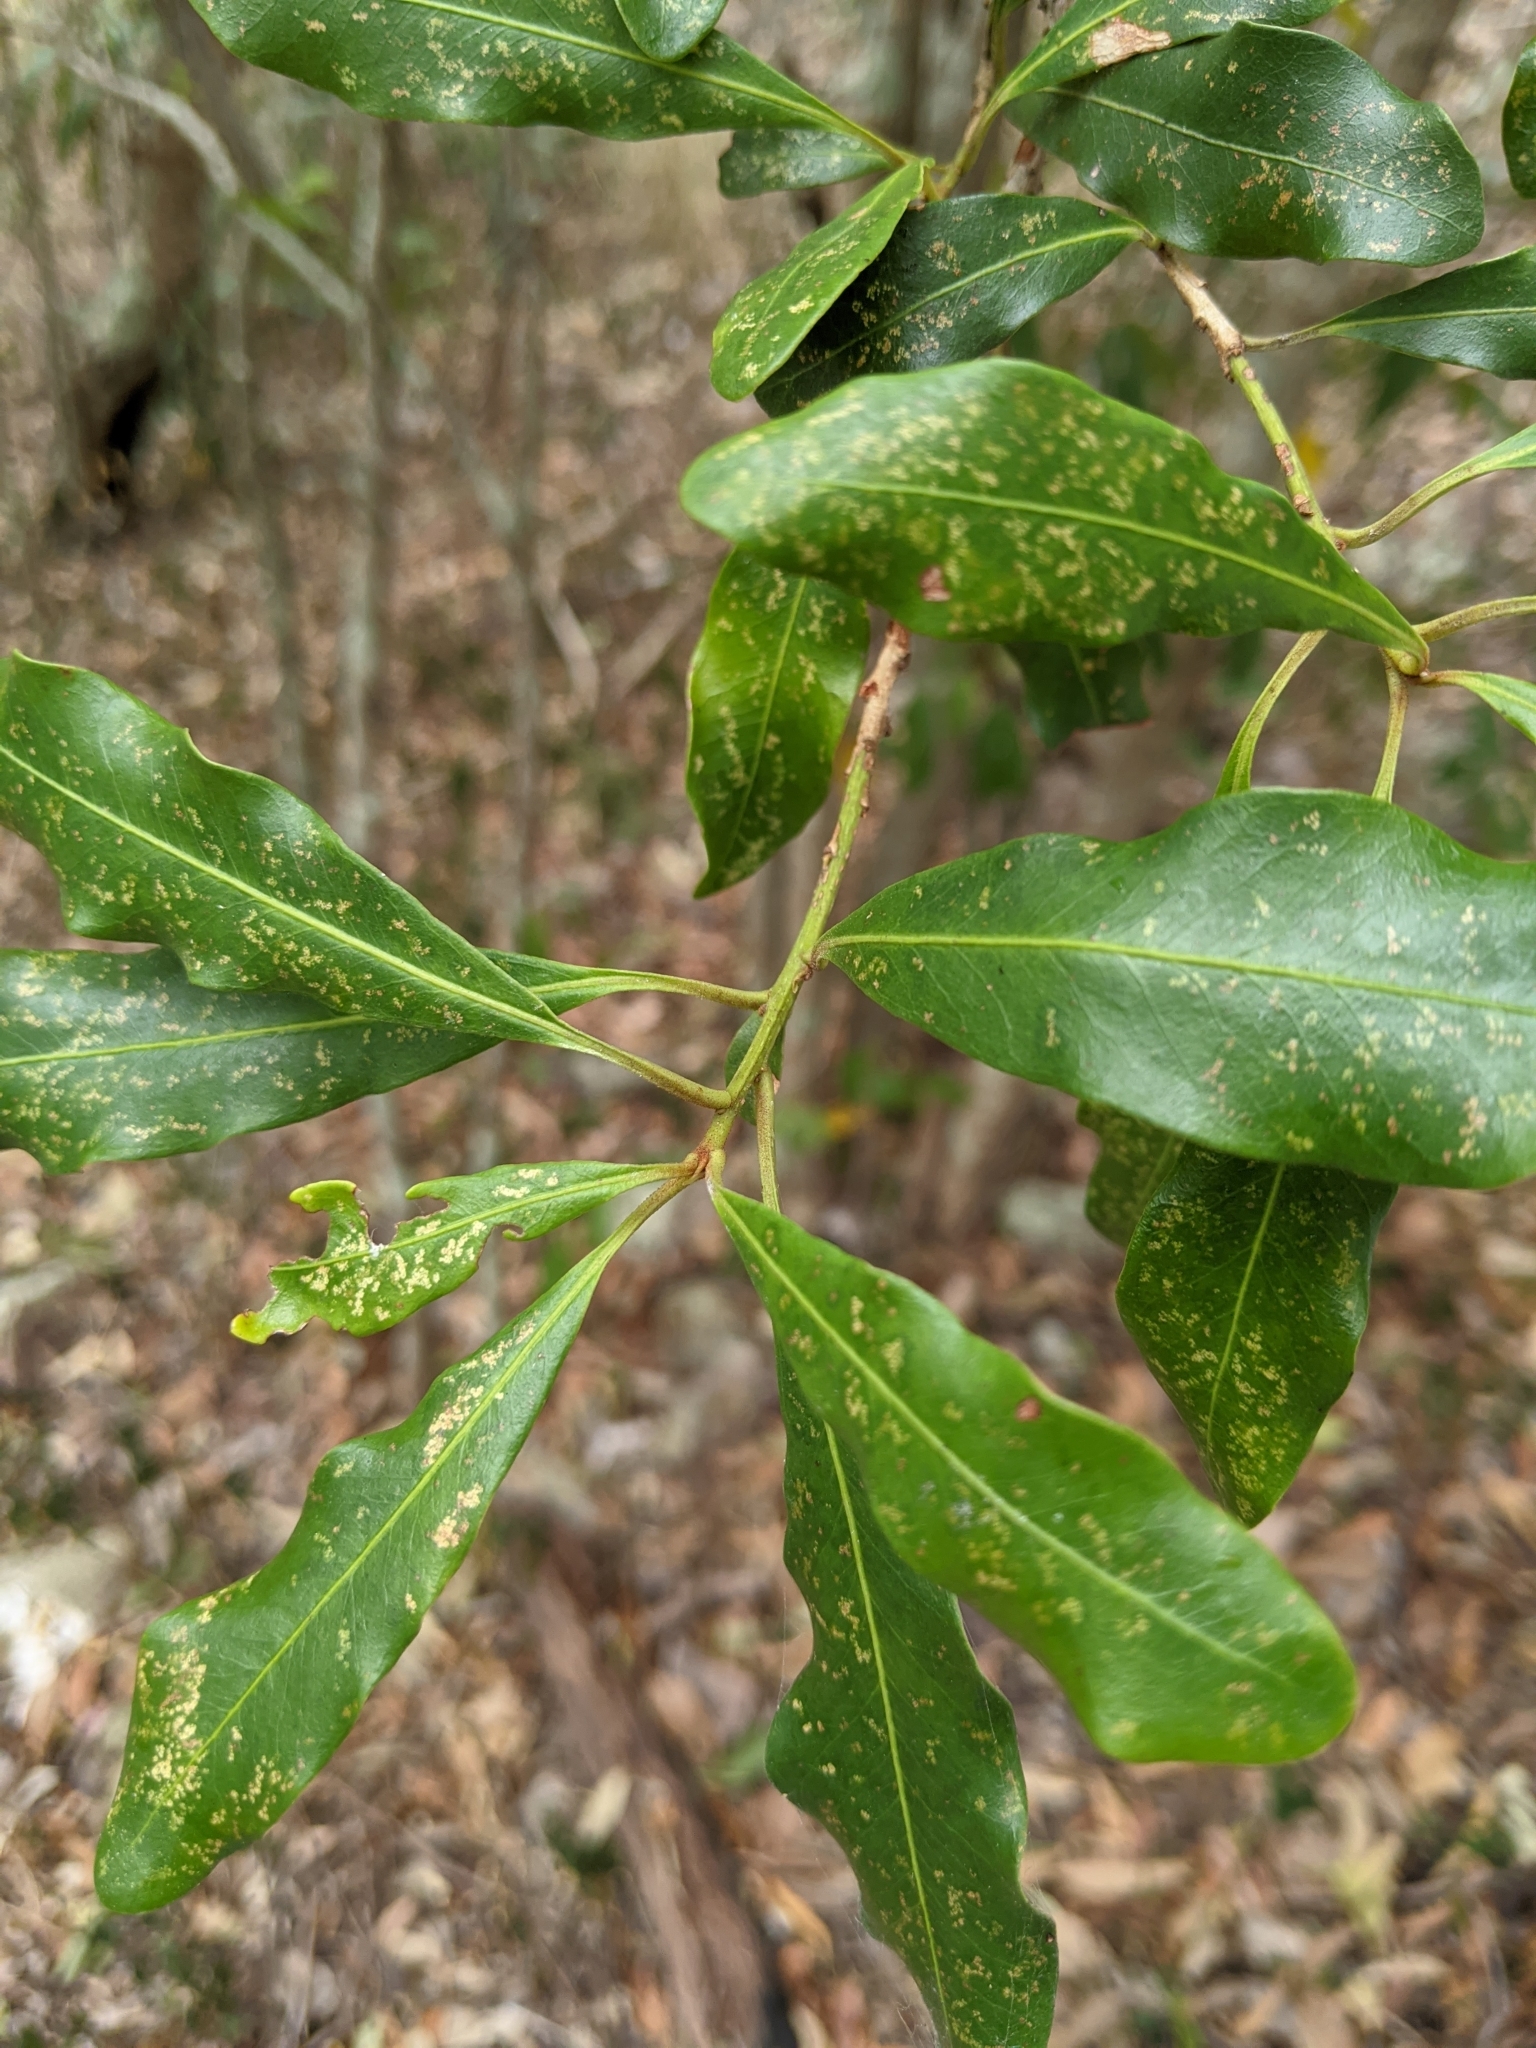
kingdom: Plantae
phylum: Tracheophyta
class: Magnoliopsida
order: Ericales
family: Primulaceae
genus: Myrsine
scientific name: Myrsine howittiana
